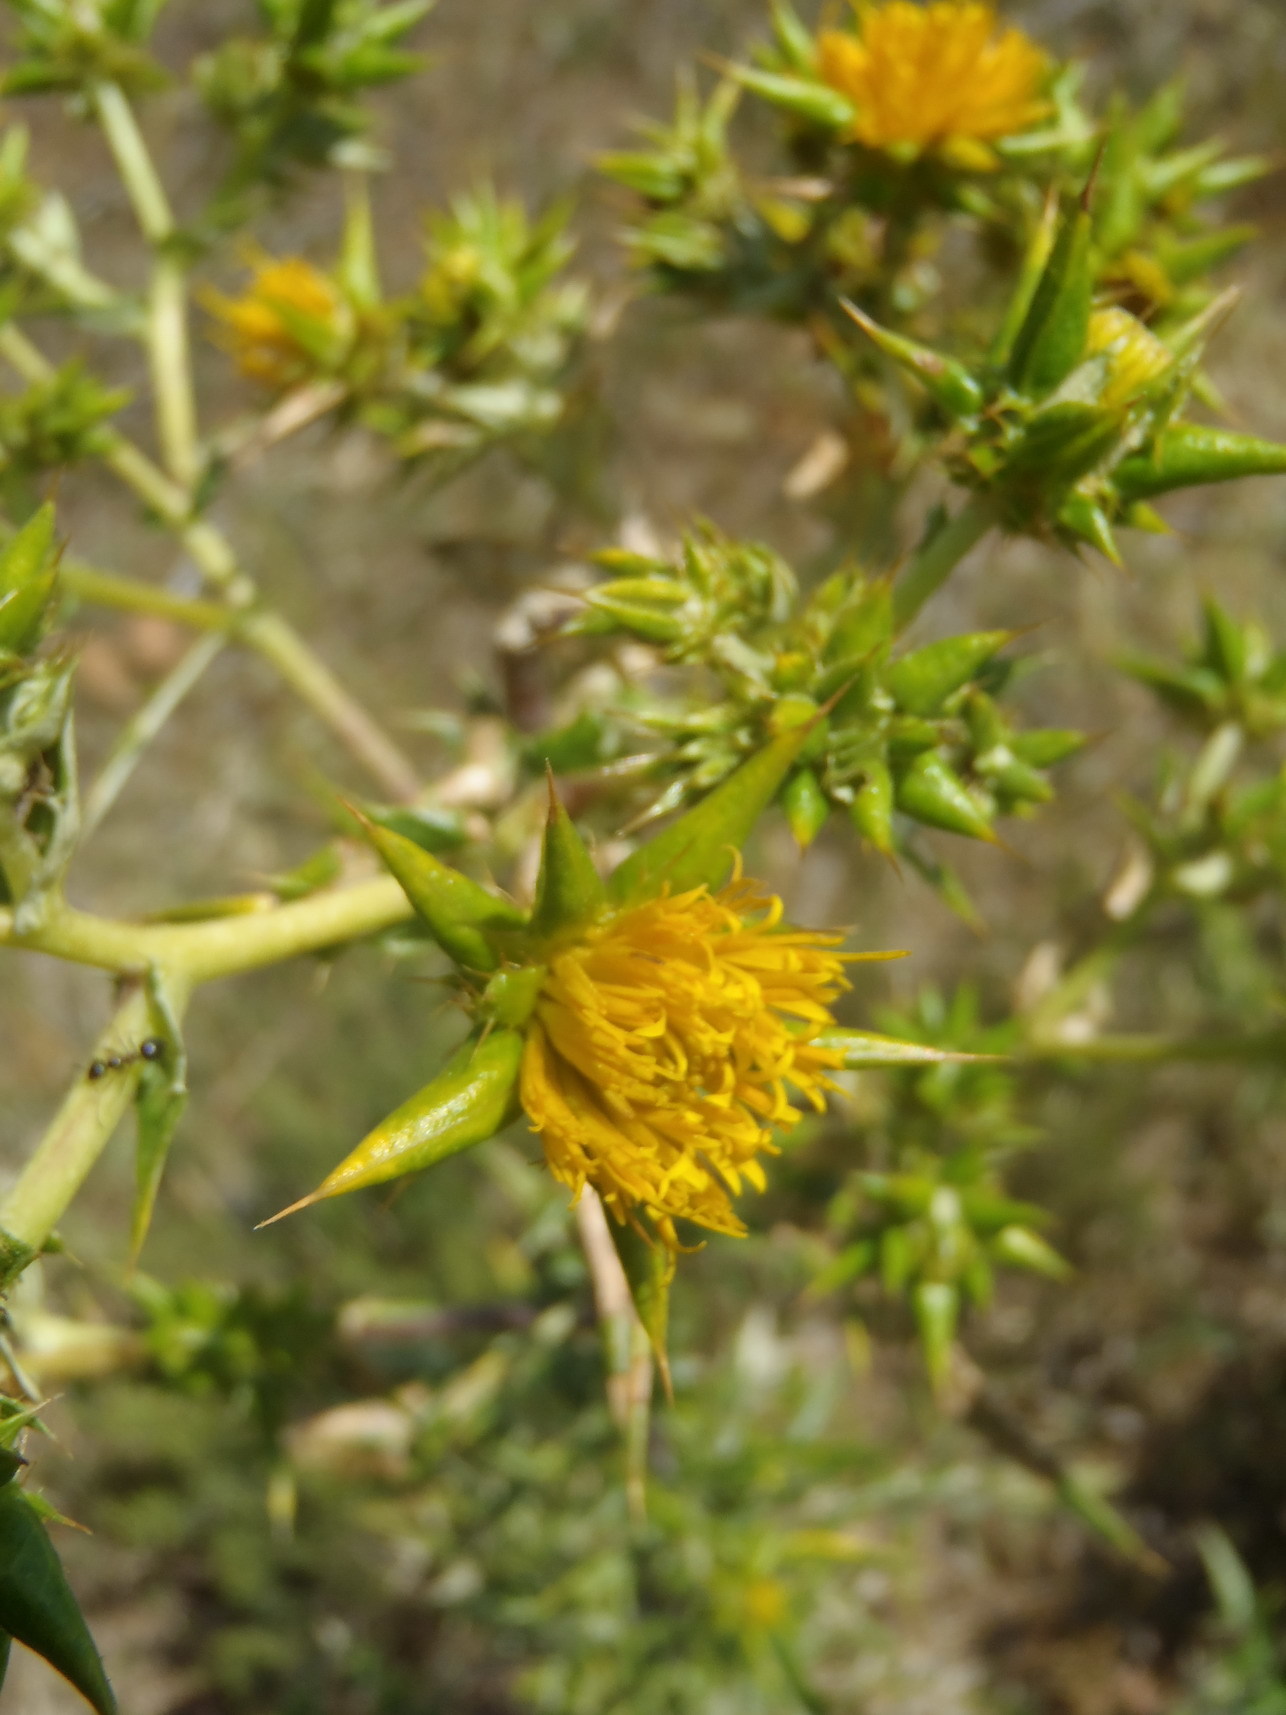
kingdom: Plantae
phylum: Tracheophyta
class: Magnoliopsida
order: Asterales
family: Asteraceae
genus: Berkheya
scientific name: Berkheya rigida
